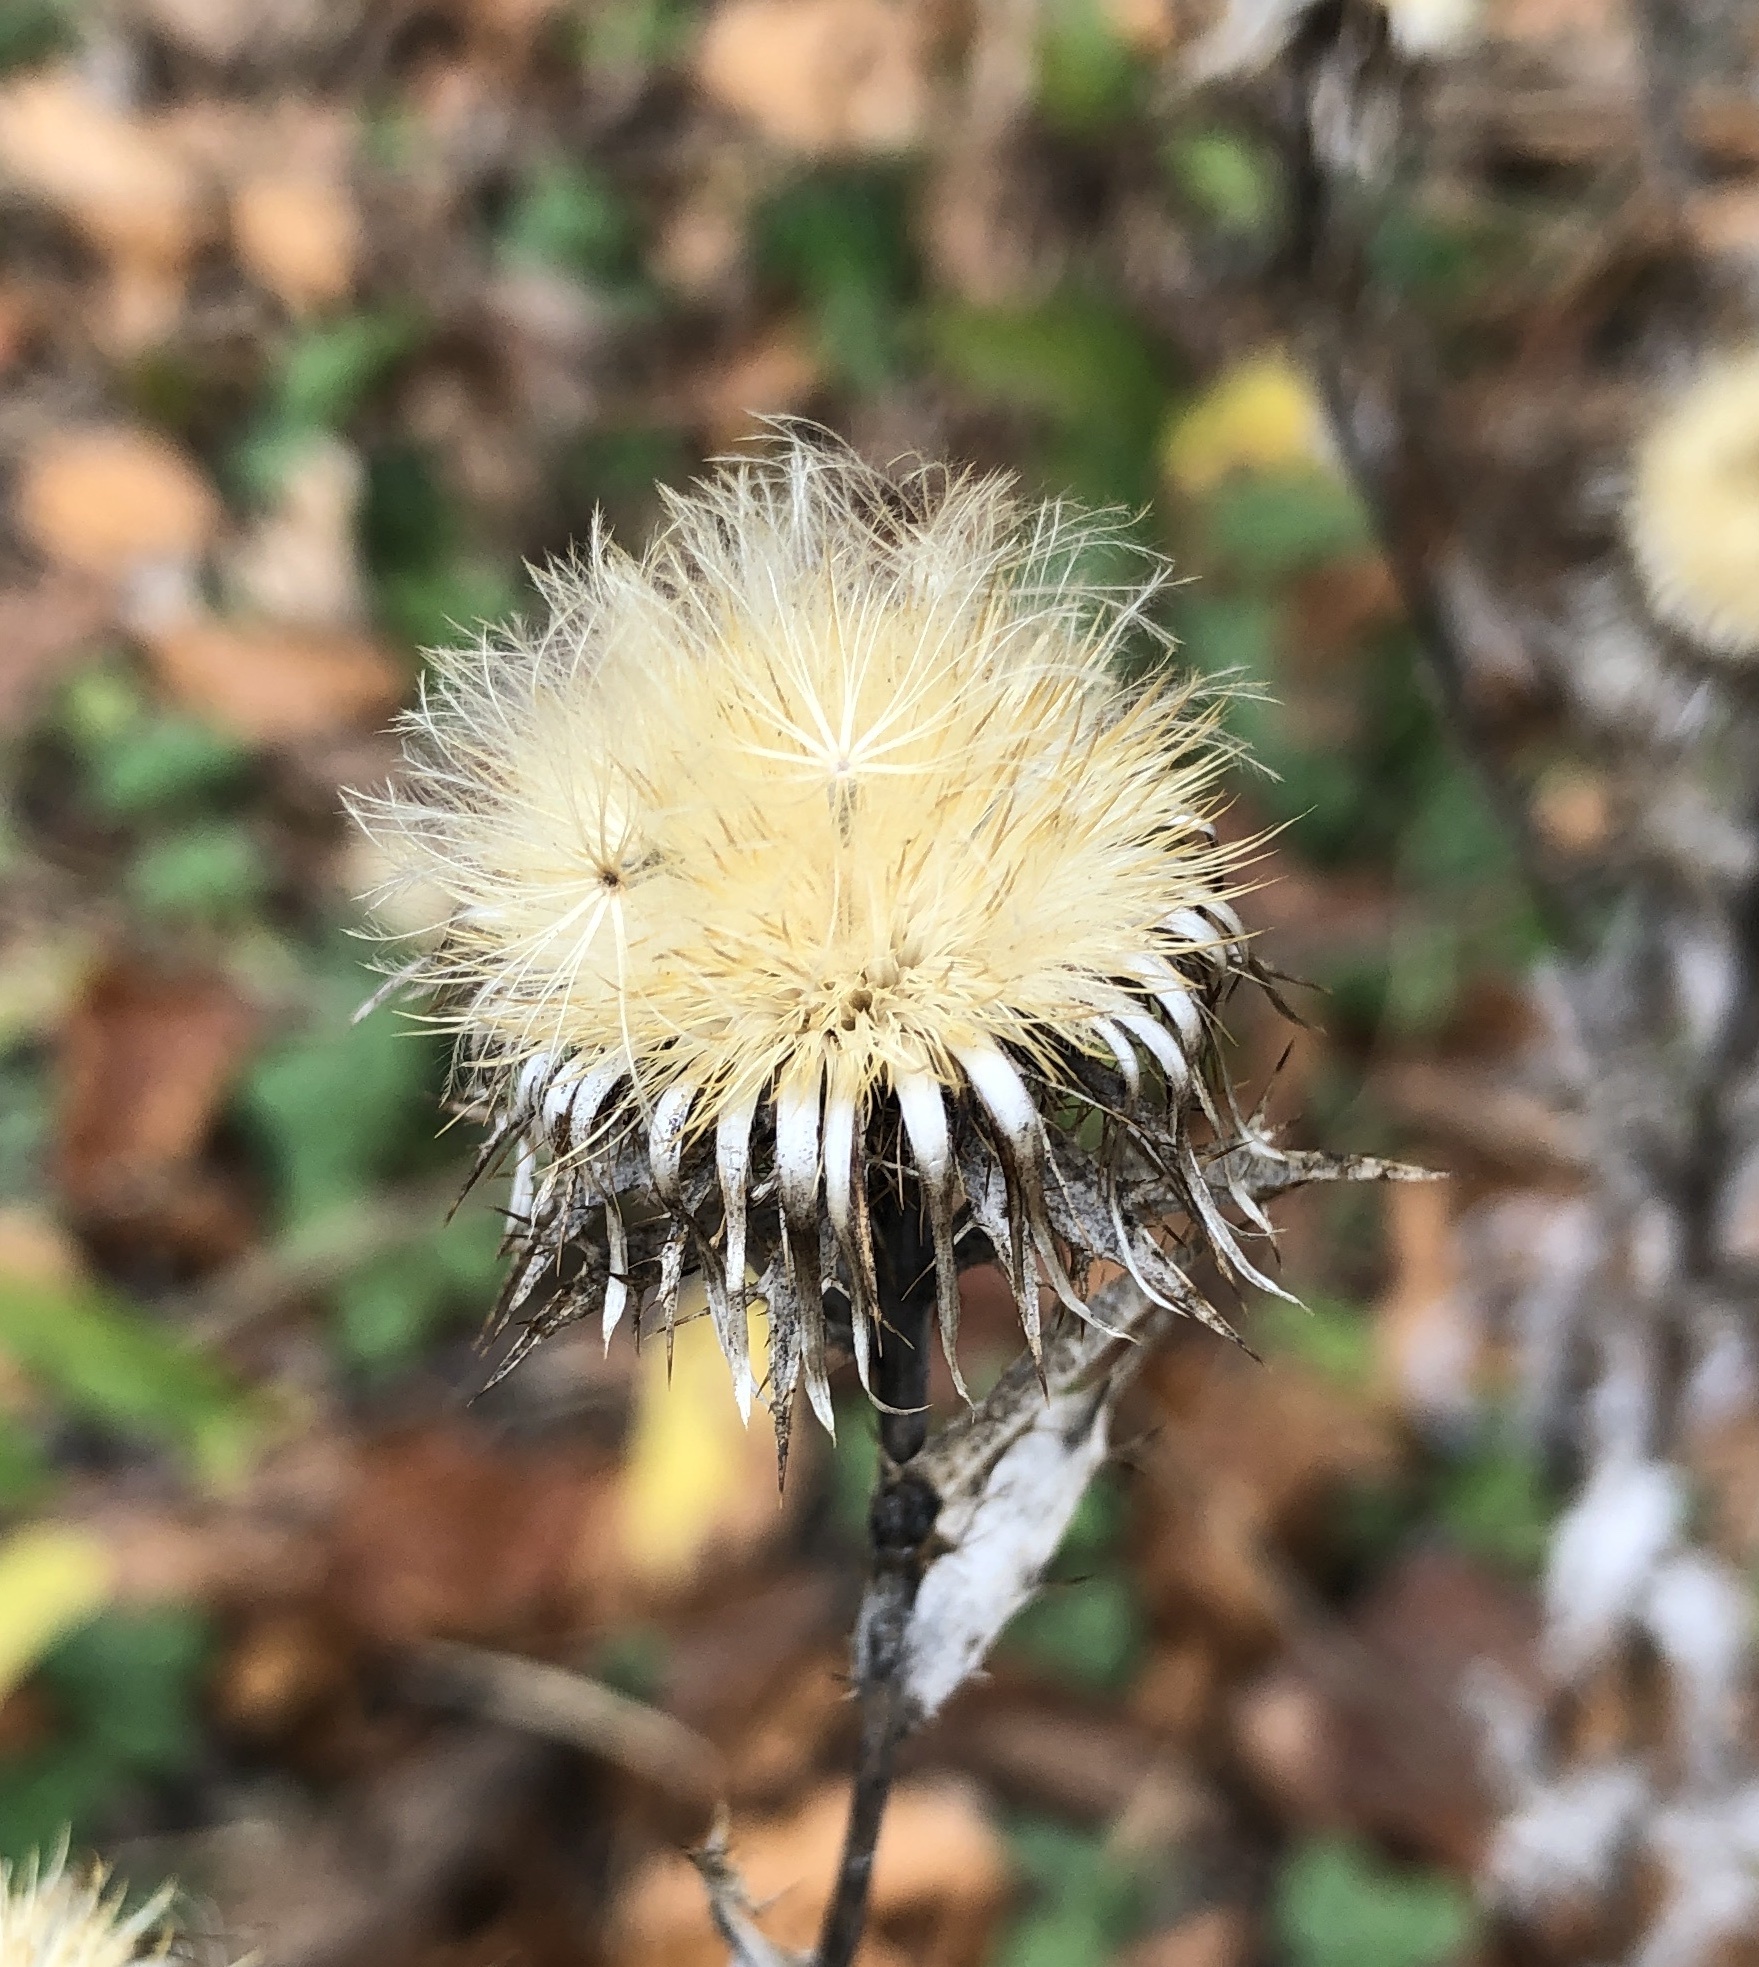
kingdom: Plantae
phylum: Tracheophyta
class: Magnoliopsida
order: Asterales
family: Asteraceae
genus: Carlina
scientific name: Carlina vulgaris
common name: Carline thistle
